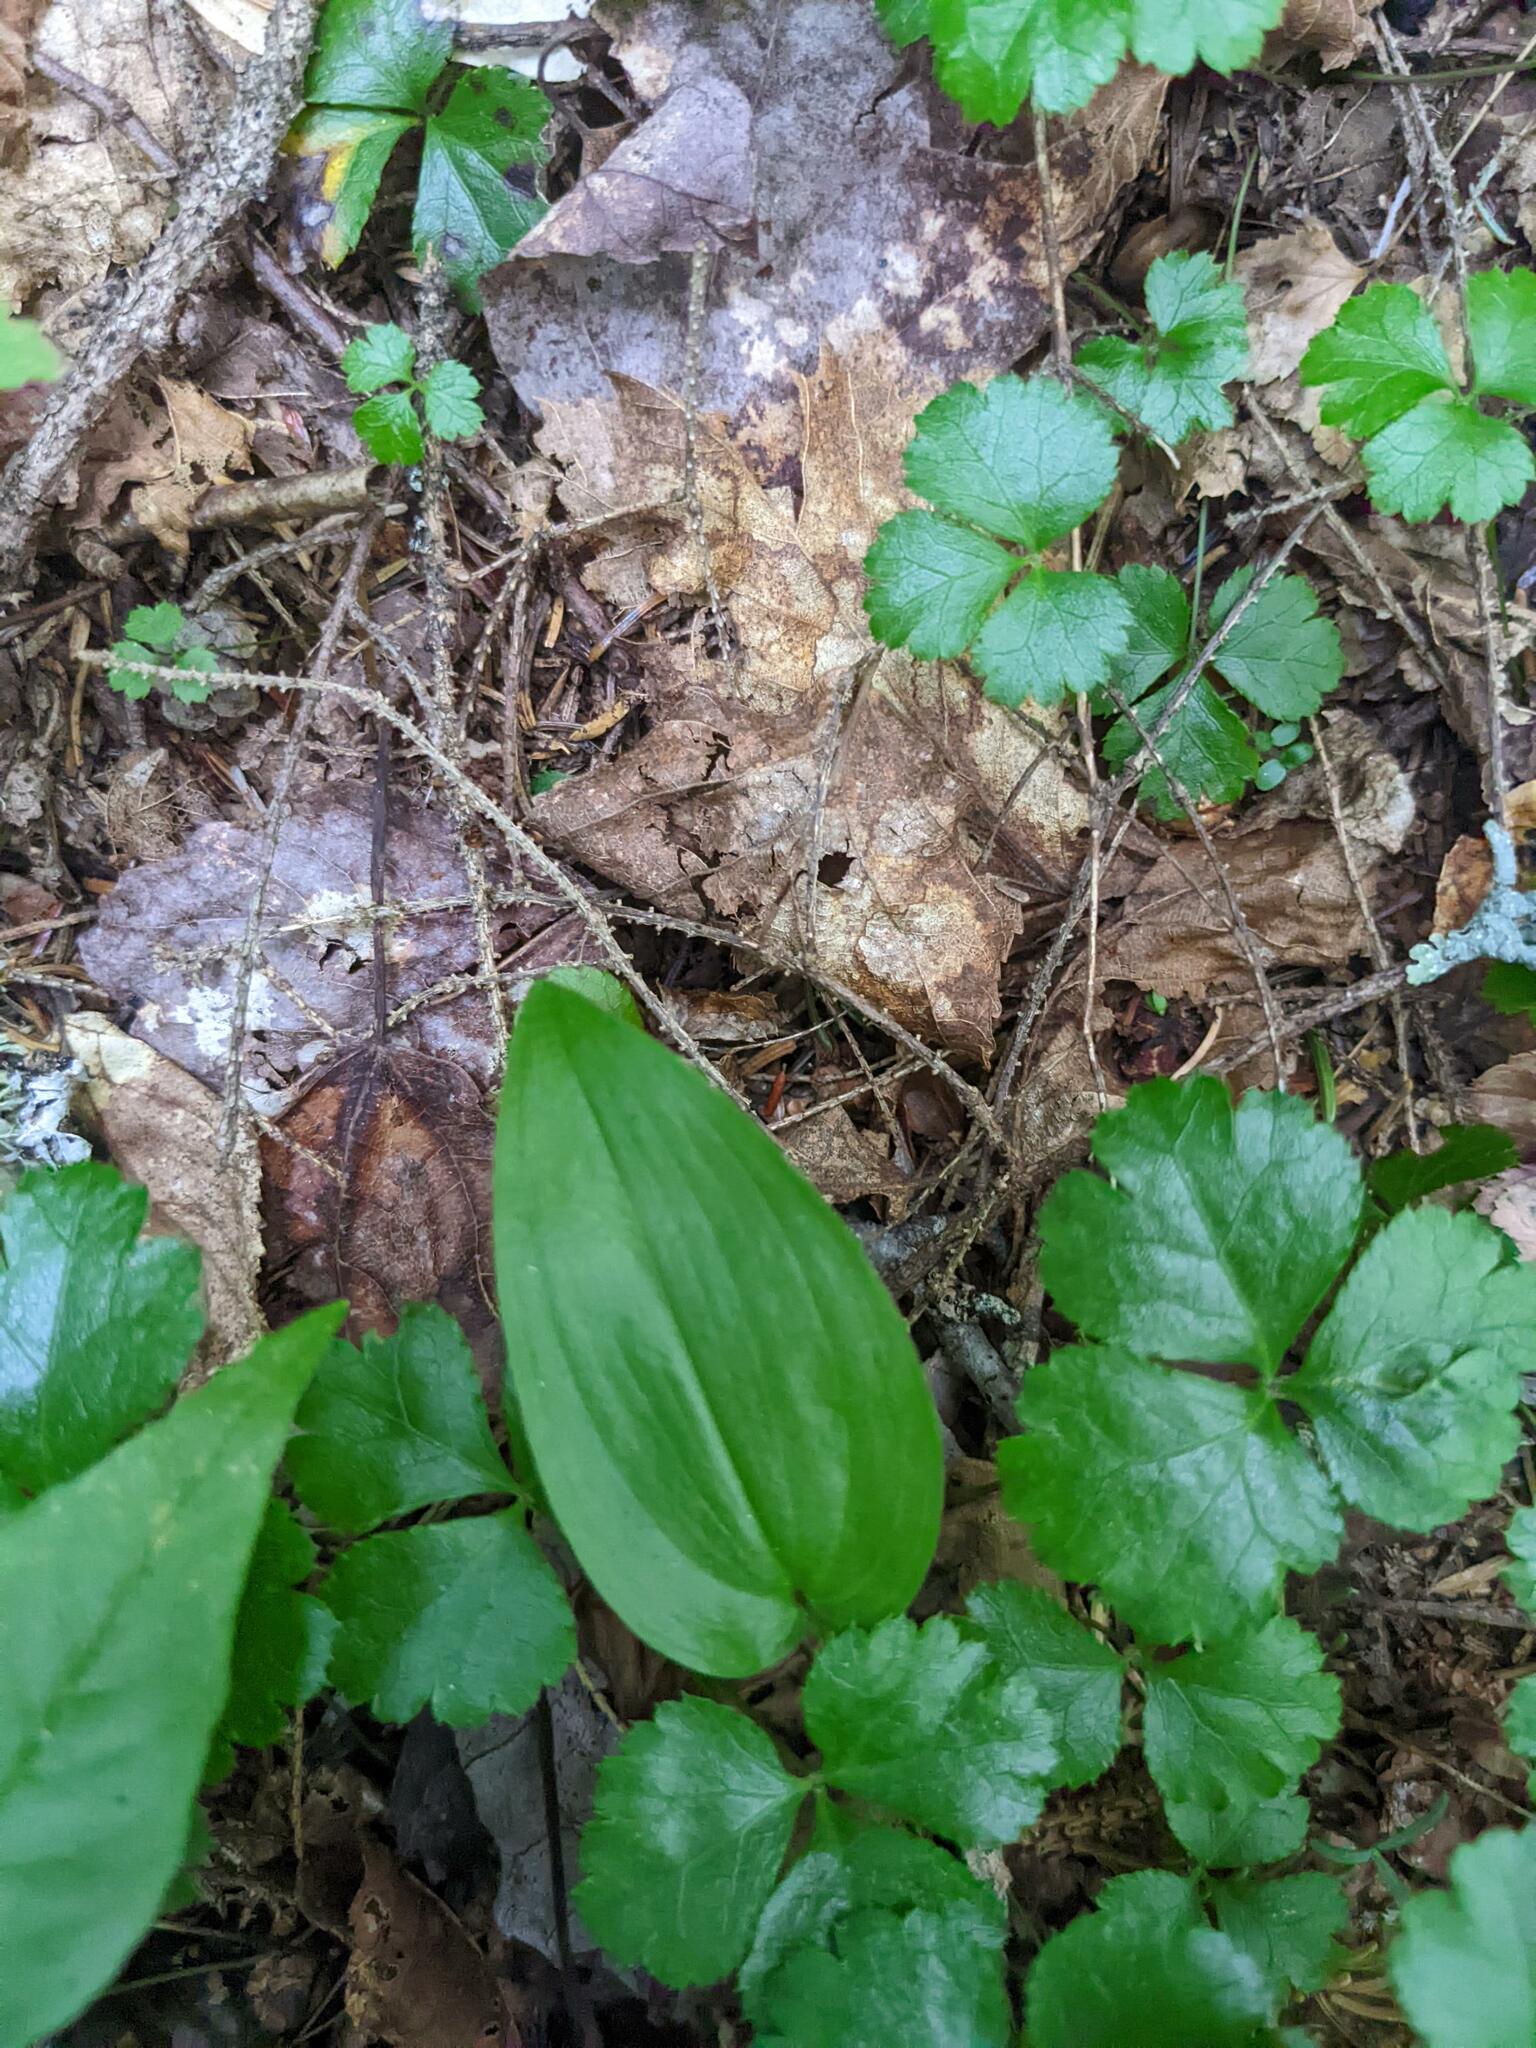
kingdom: Plantae
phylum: Tracheophyta
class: Liliopsida
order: Asparagales
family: Asparagaceae
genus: Maianthemum
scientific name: Maianthemum canadense
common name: False lily-of-the-valley
